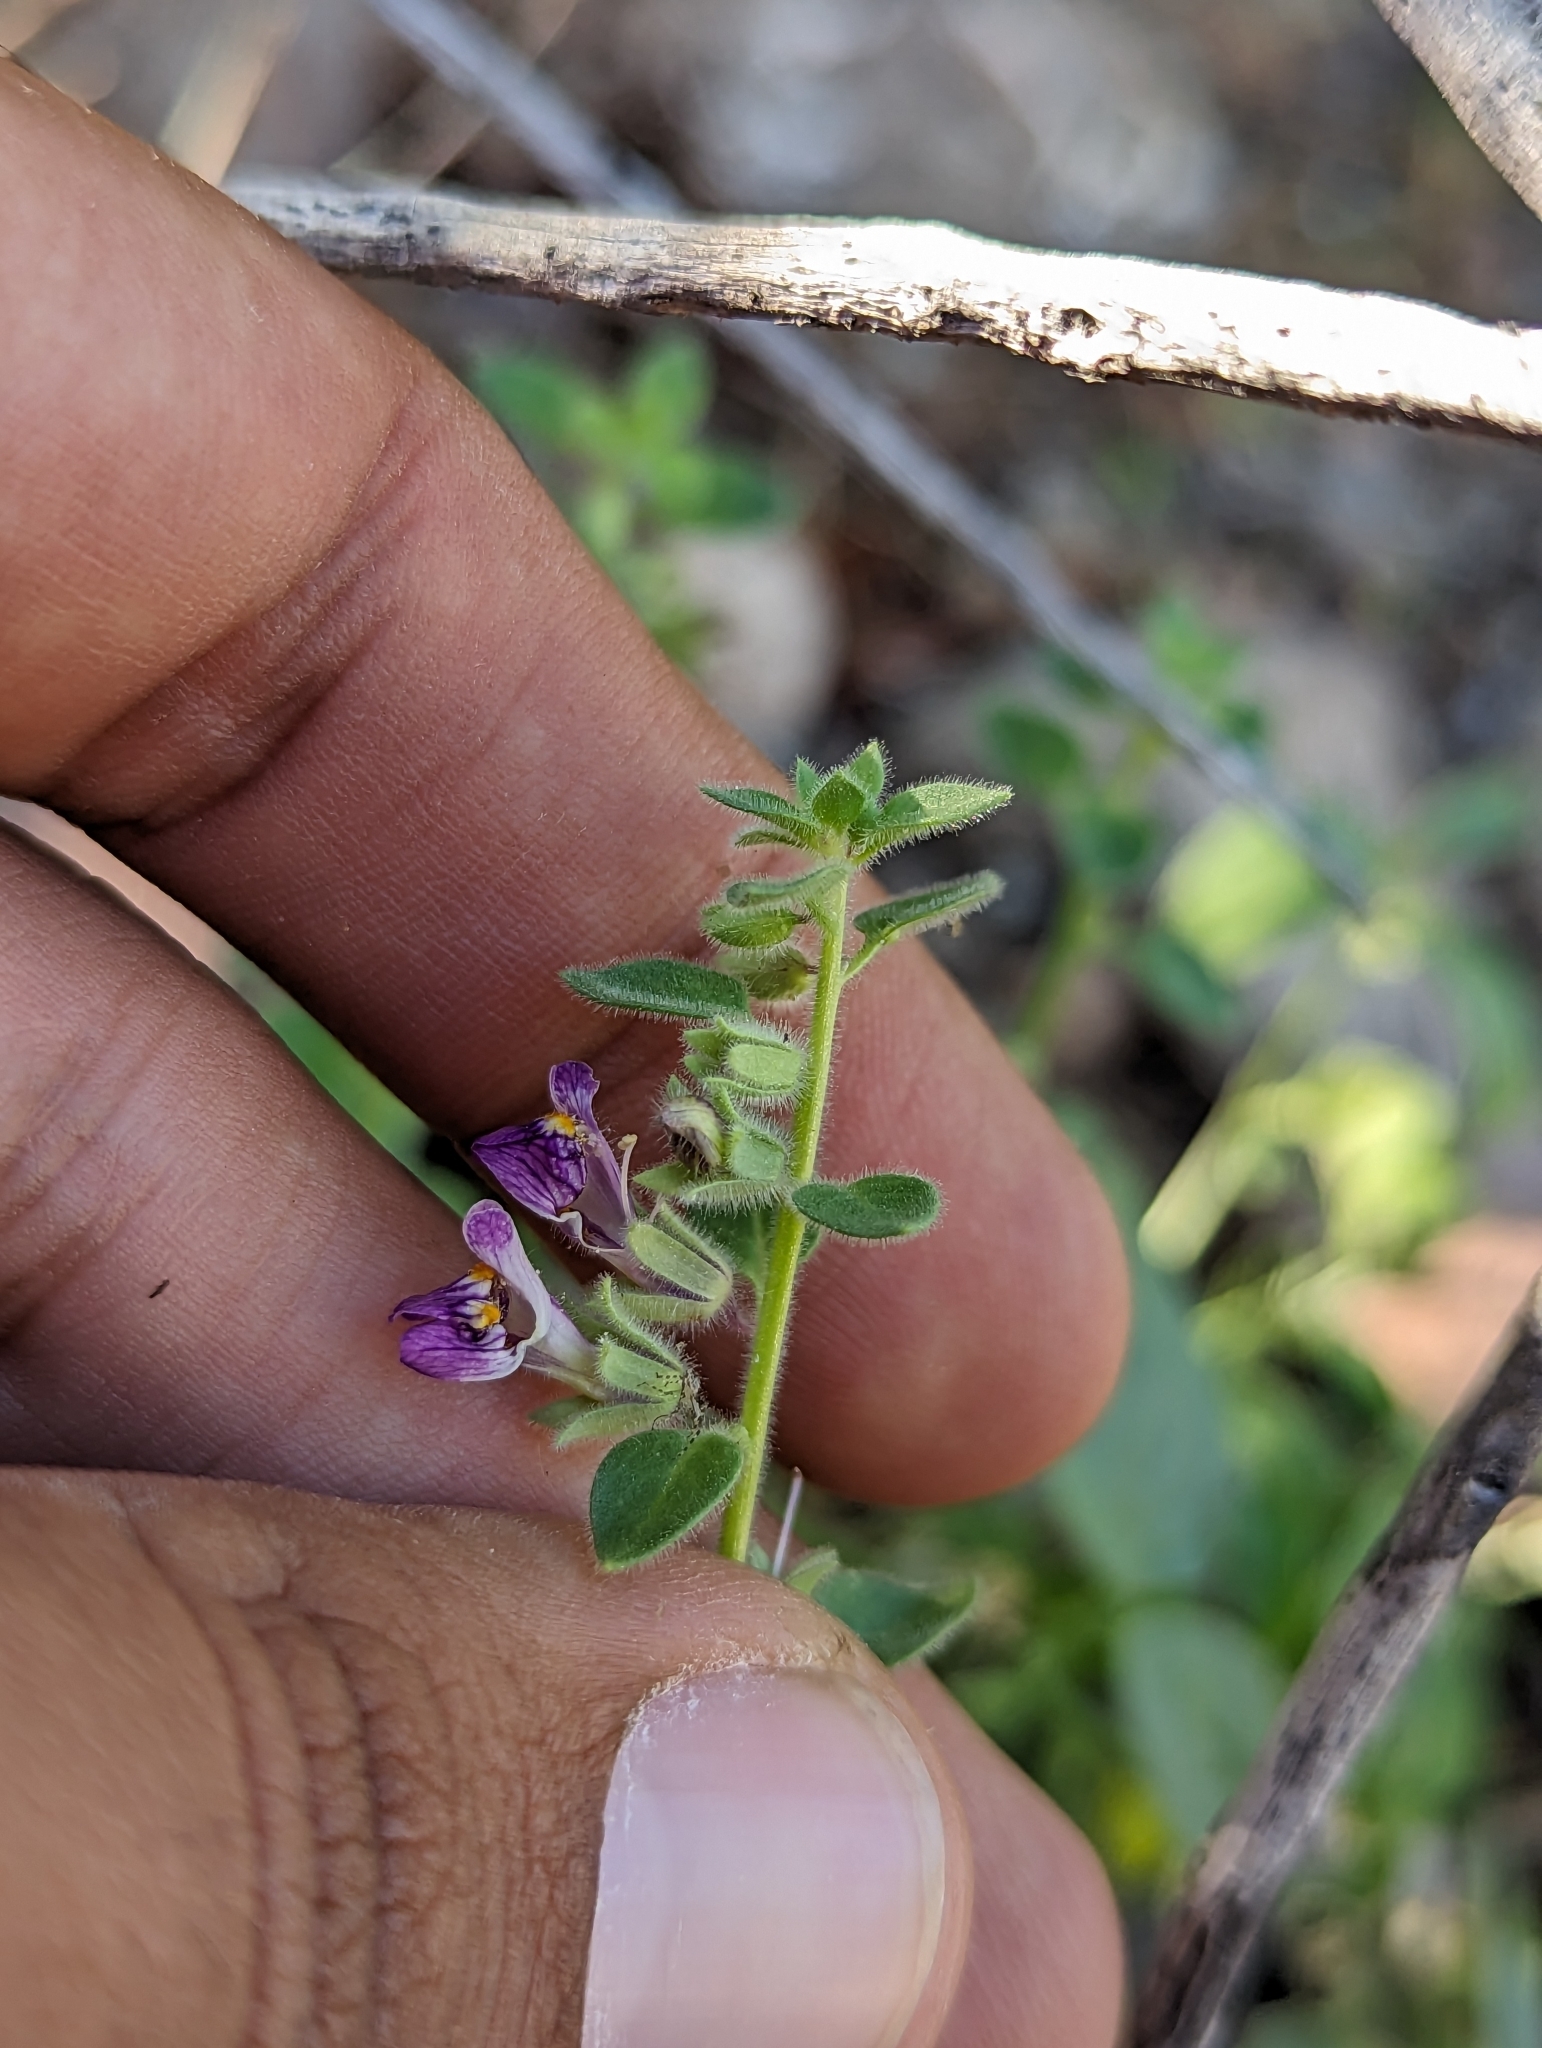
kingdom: Plantae
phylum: Tracheophyta
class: Magnoliopsida
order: Lamiales
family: Plantaginaceae
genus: Pseudorontium
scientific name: Pseudorontium cyathiferum
